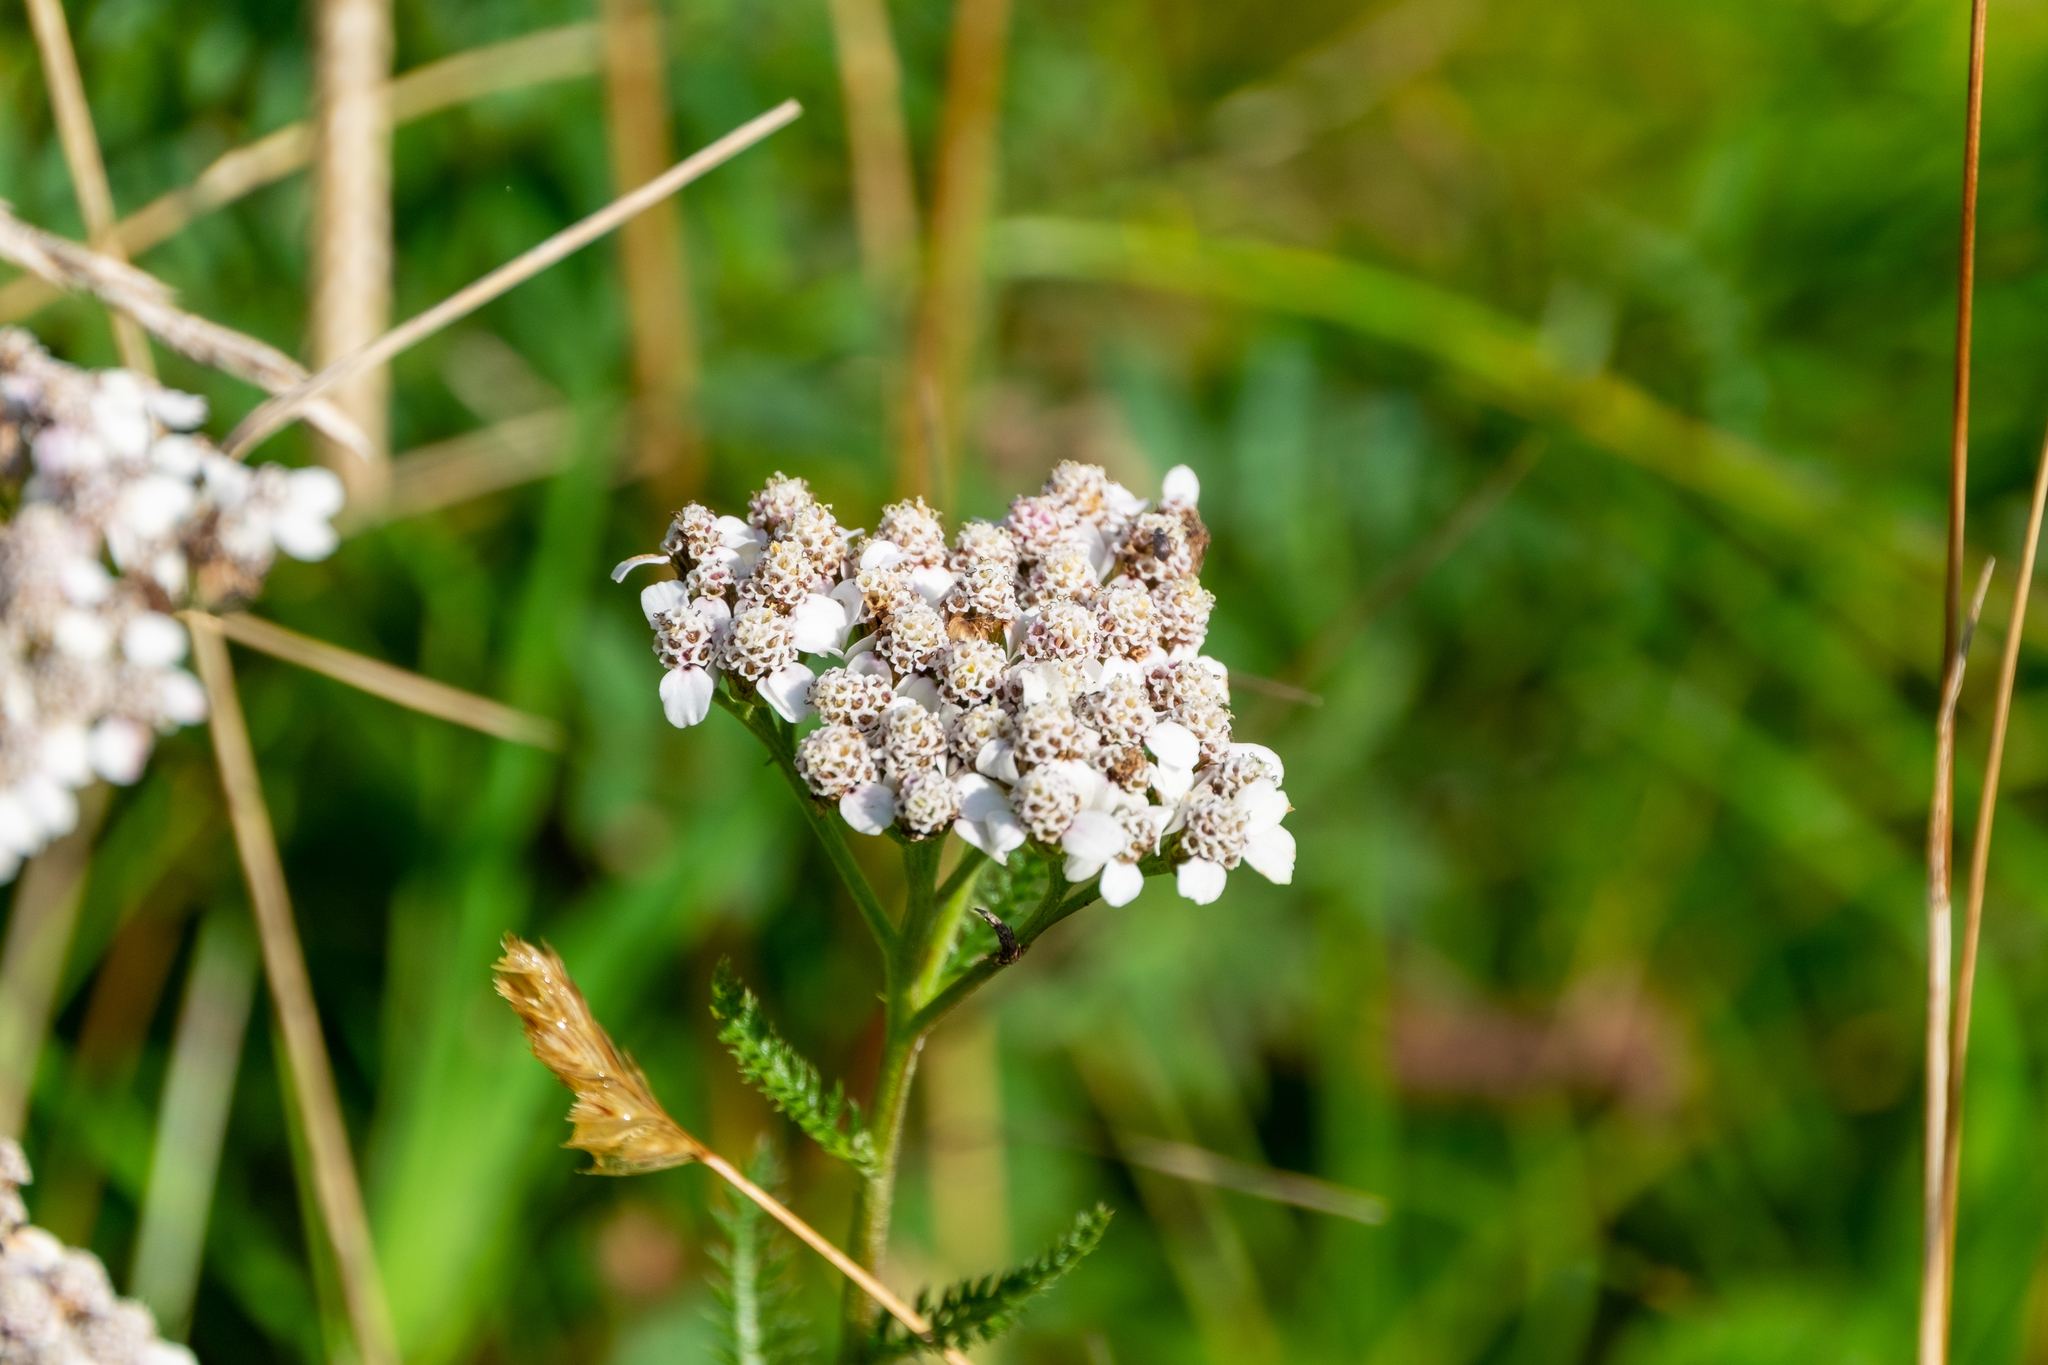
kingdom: Plantae
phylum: Tracheophyta
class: Magnoliopsida
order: Asterales
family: Asteraceae
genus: Achillea
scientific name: Achillea millefolium
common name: Yarrow
